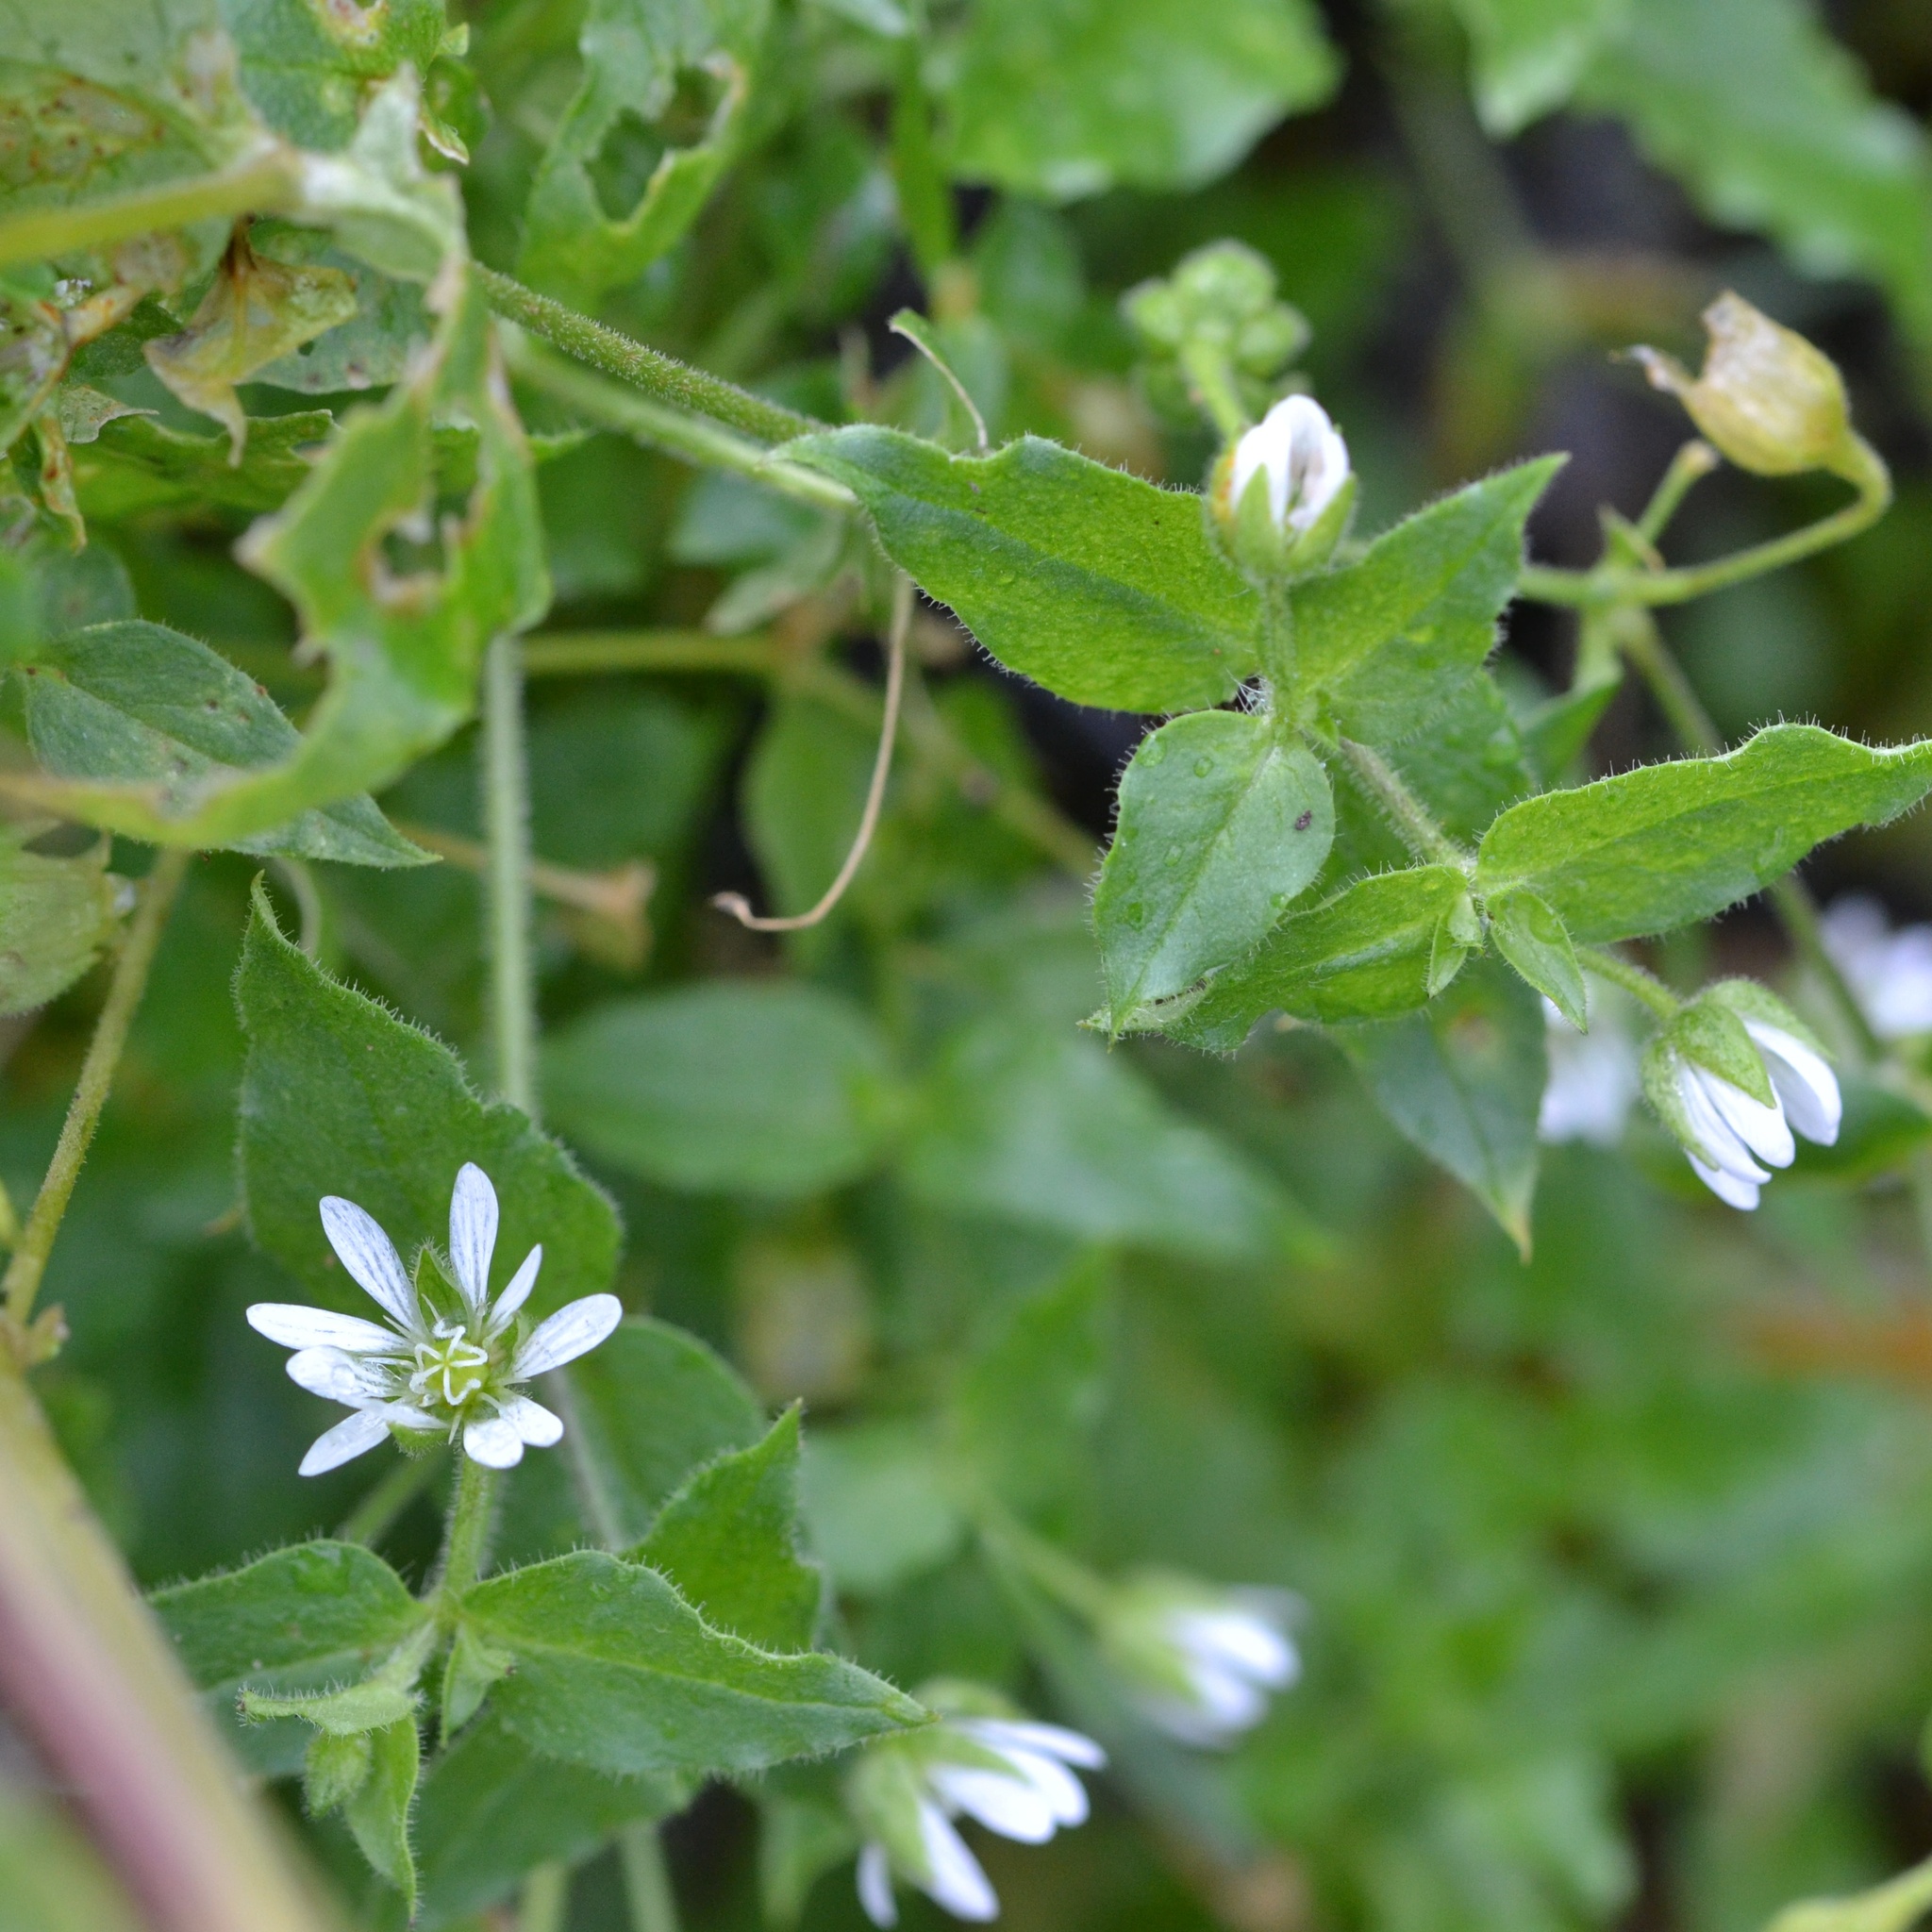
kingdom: Plantae
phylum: Tracheophyta
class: Magnoliopsida
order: Caryophyllales
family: Caryophyllaceae
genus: Stellaria
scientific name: Stellaria aquatica
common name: Water chickweed
